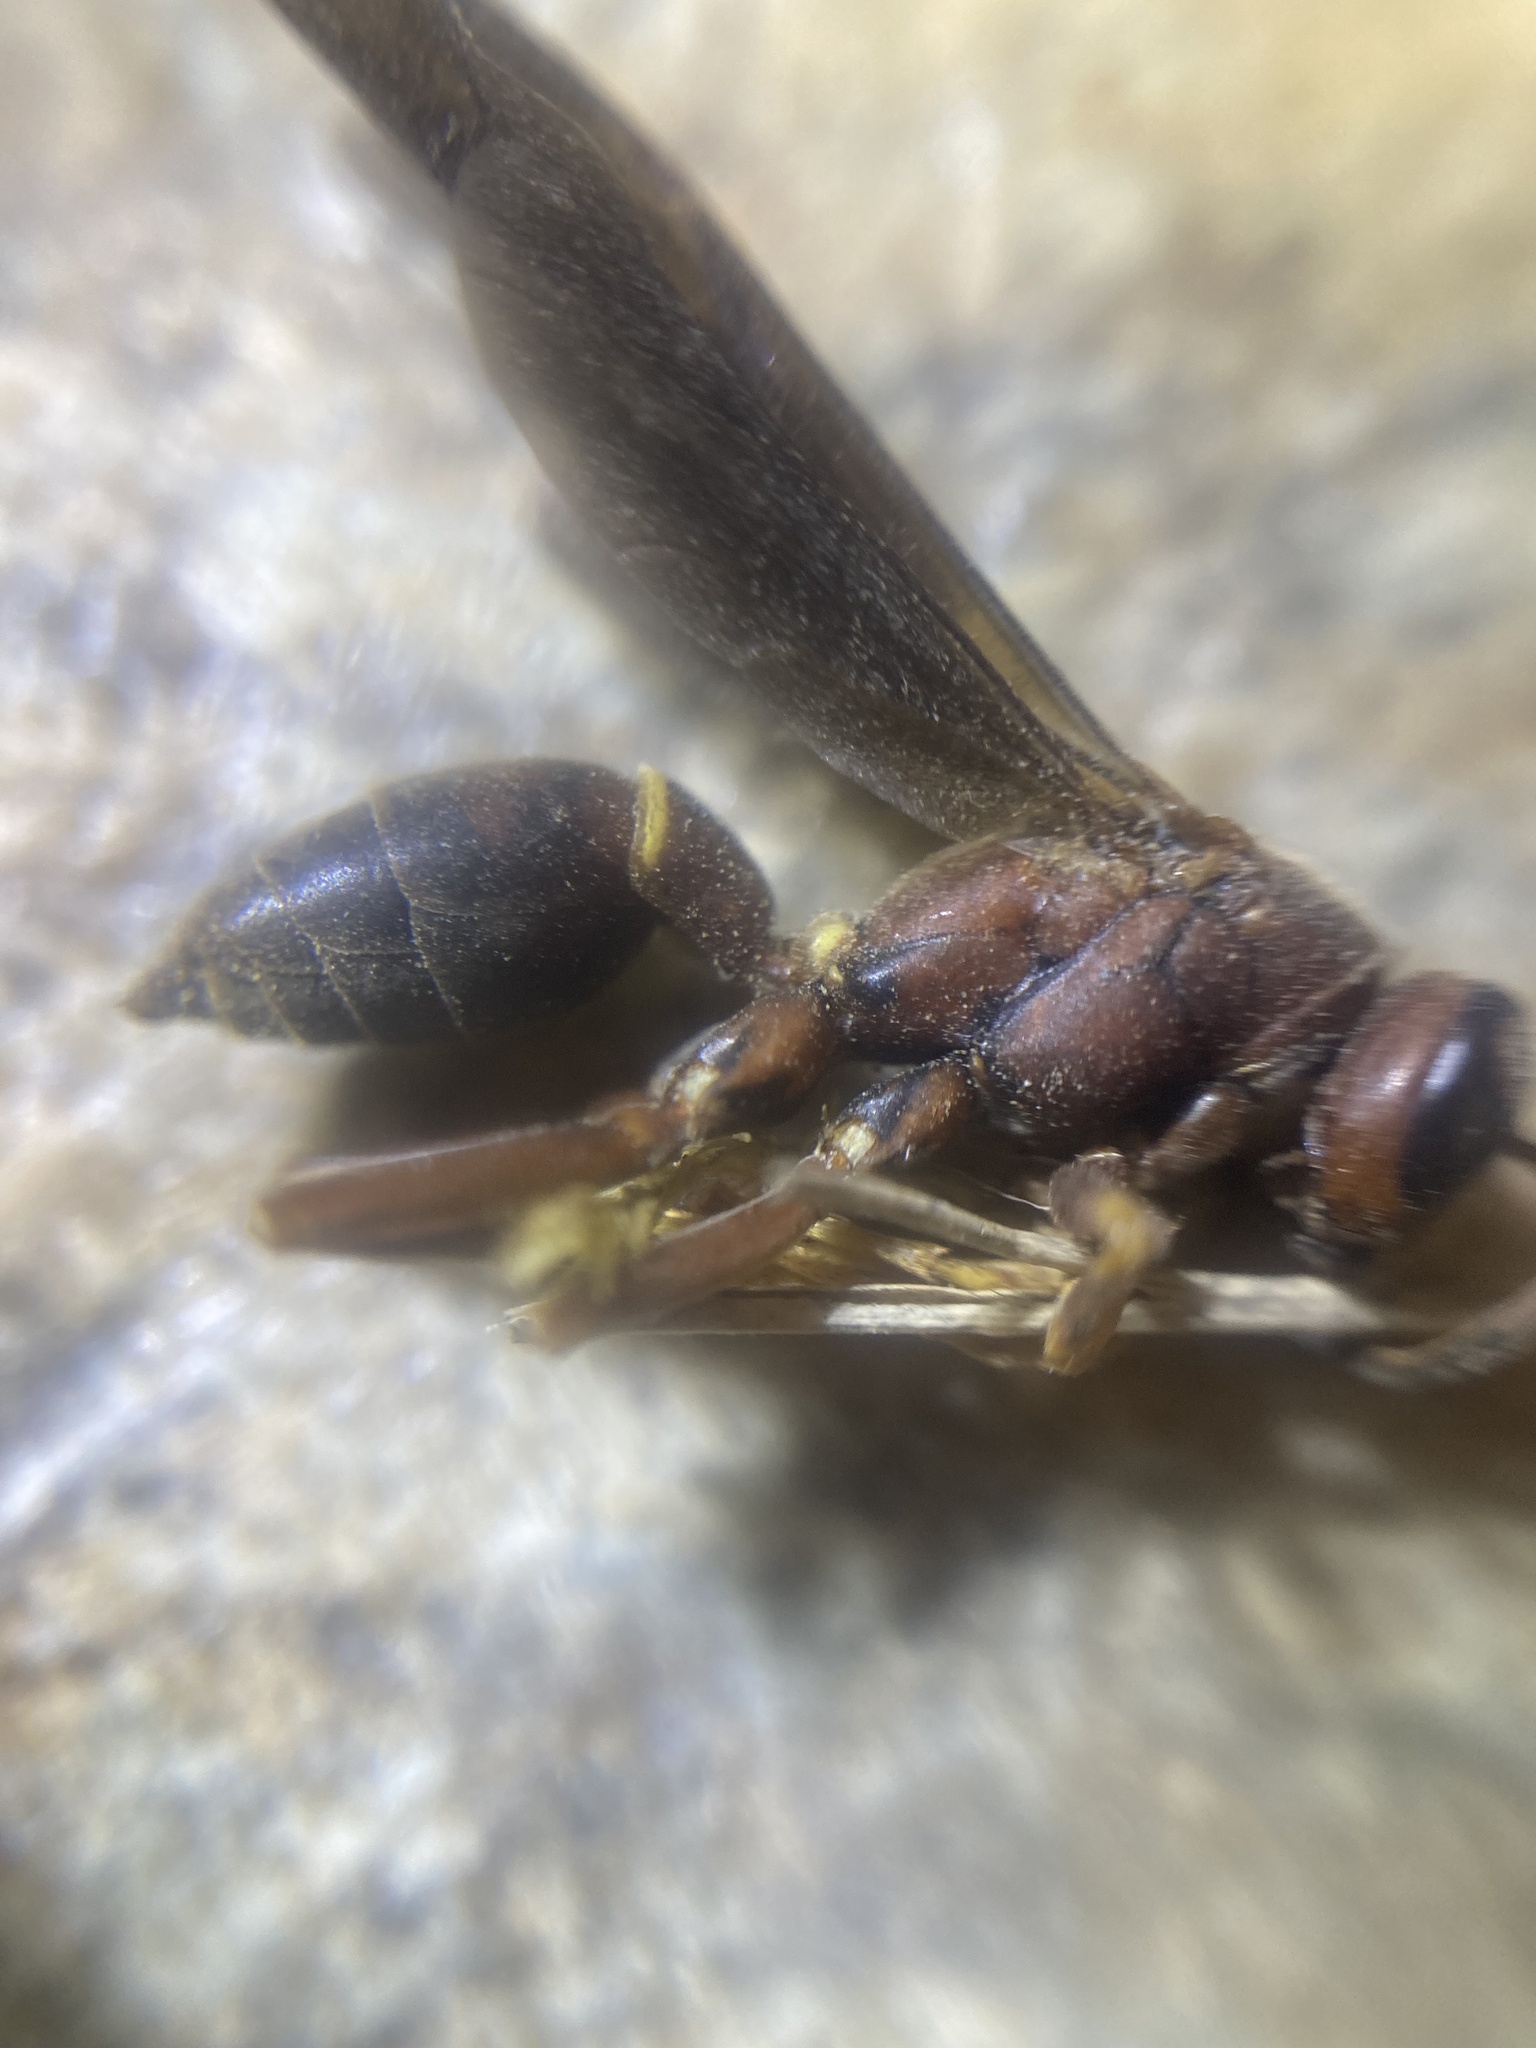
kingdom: Animalia
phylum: Arthropoda
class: Insecta
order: Hymenoptera
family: Eumenidae
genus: Polistes
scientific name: Polistes annularis
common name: Ringed paper wasp
